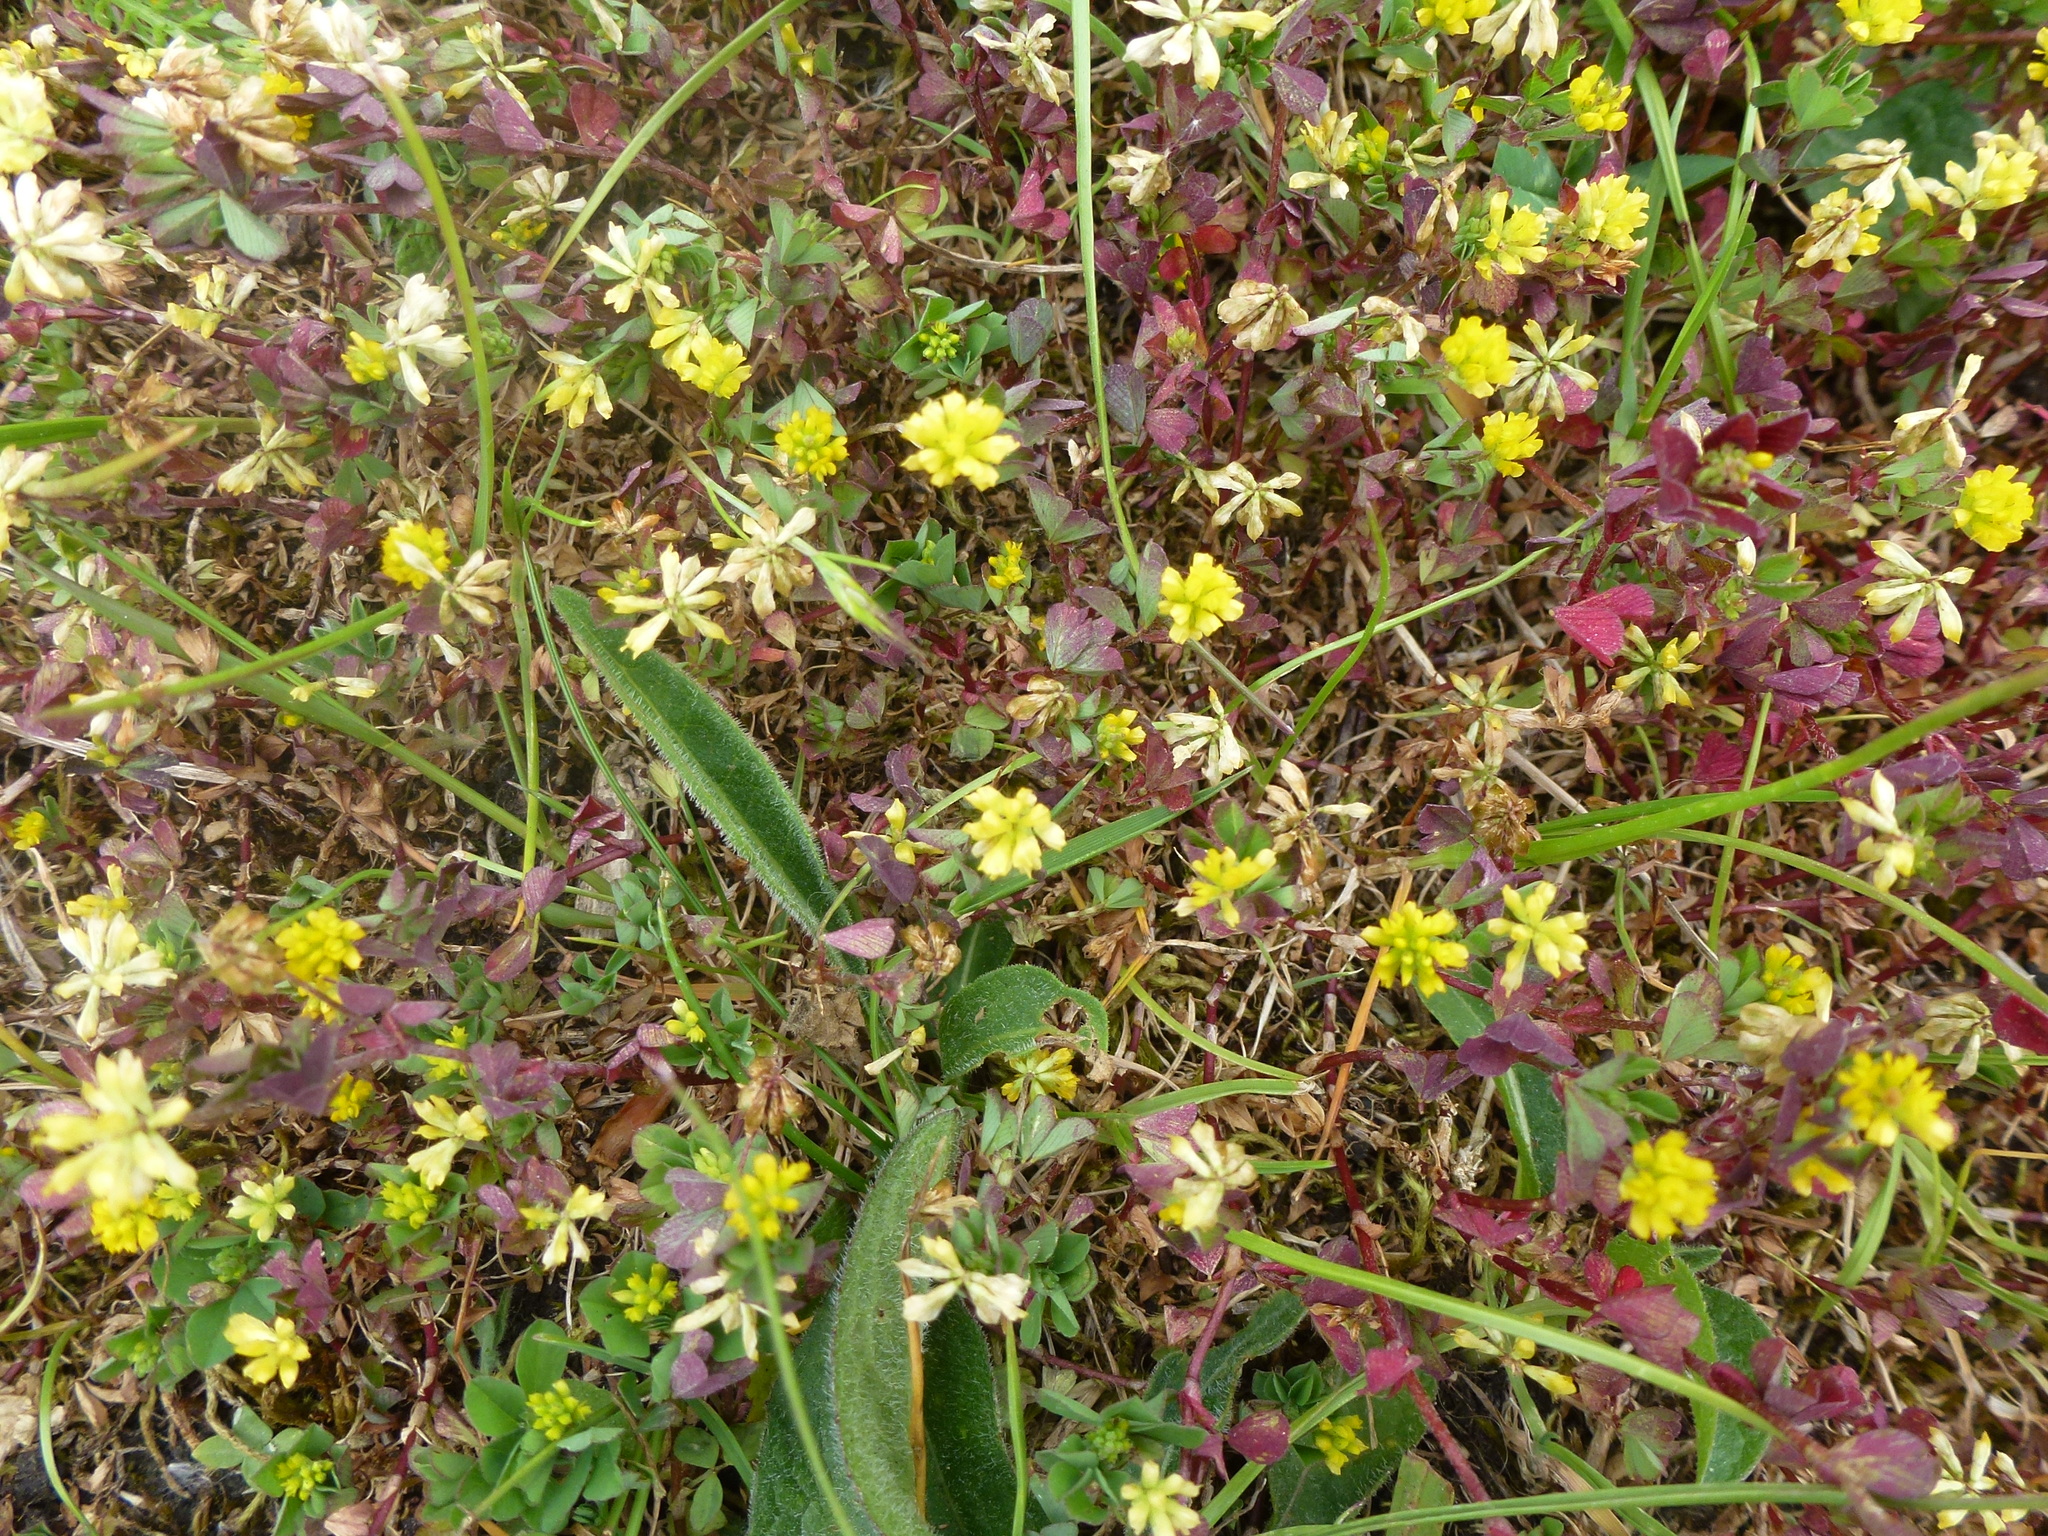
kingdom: Plantae
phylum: Tracheophyta
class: Magnoliopsida
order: Fabales
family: Fabaceae
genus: Trifolium
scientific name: Trifolium dubium
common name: Suckling clover
